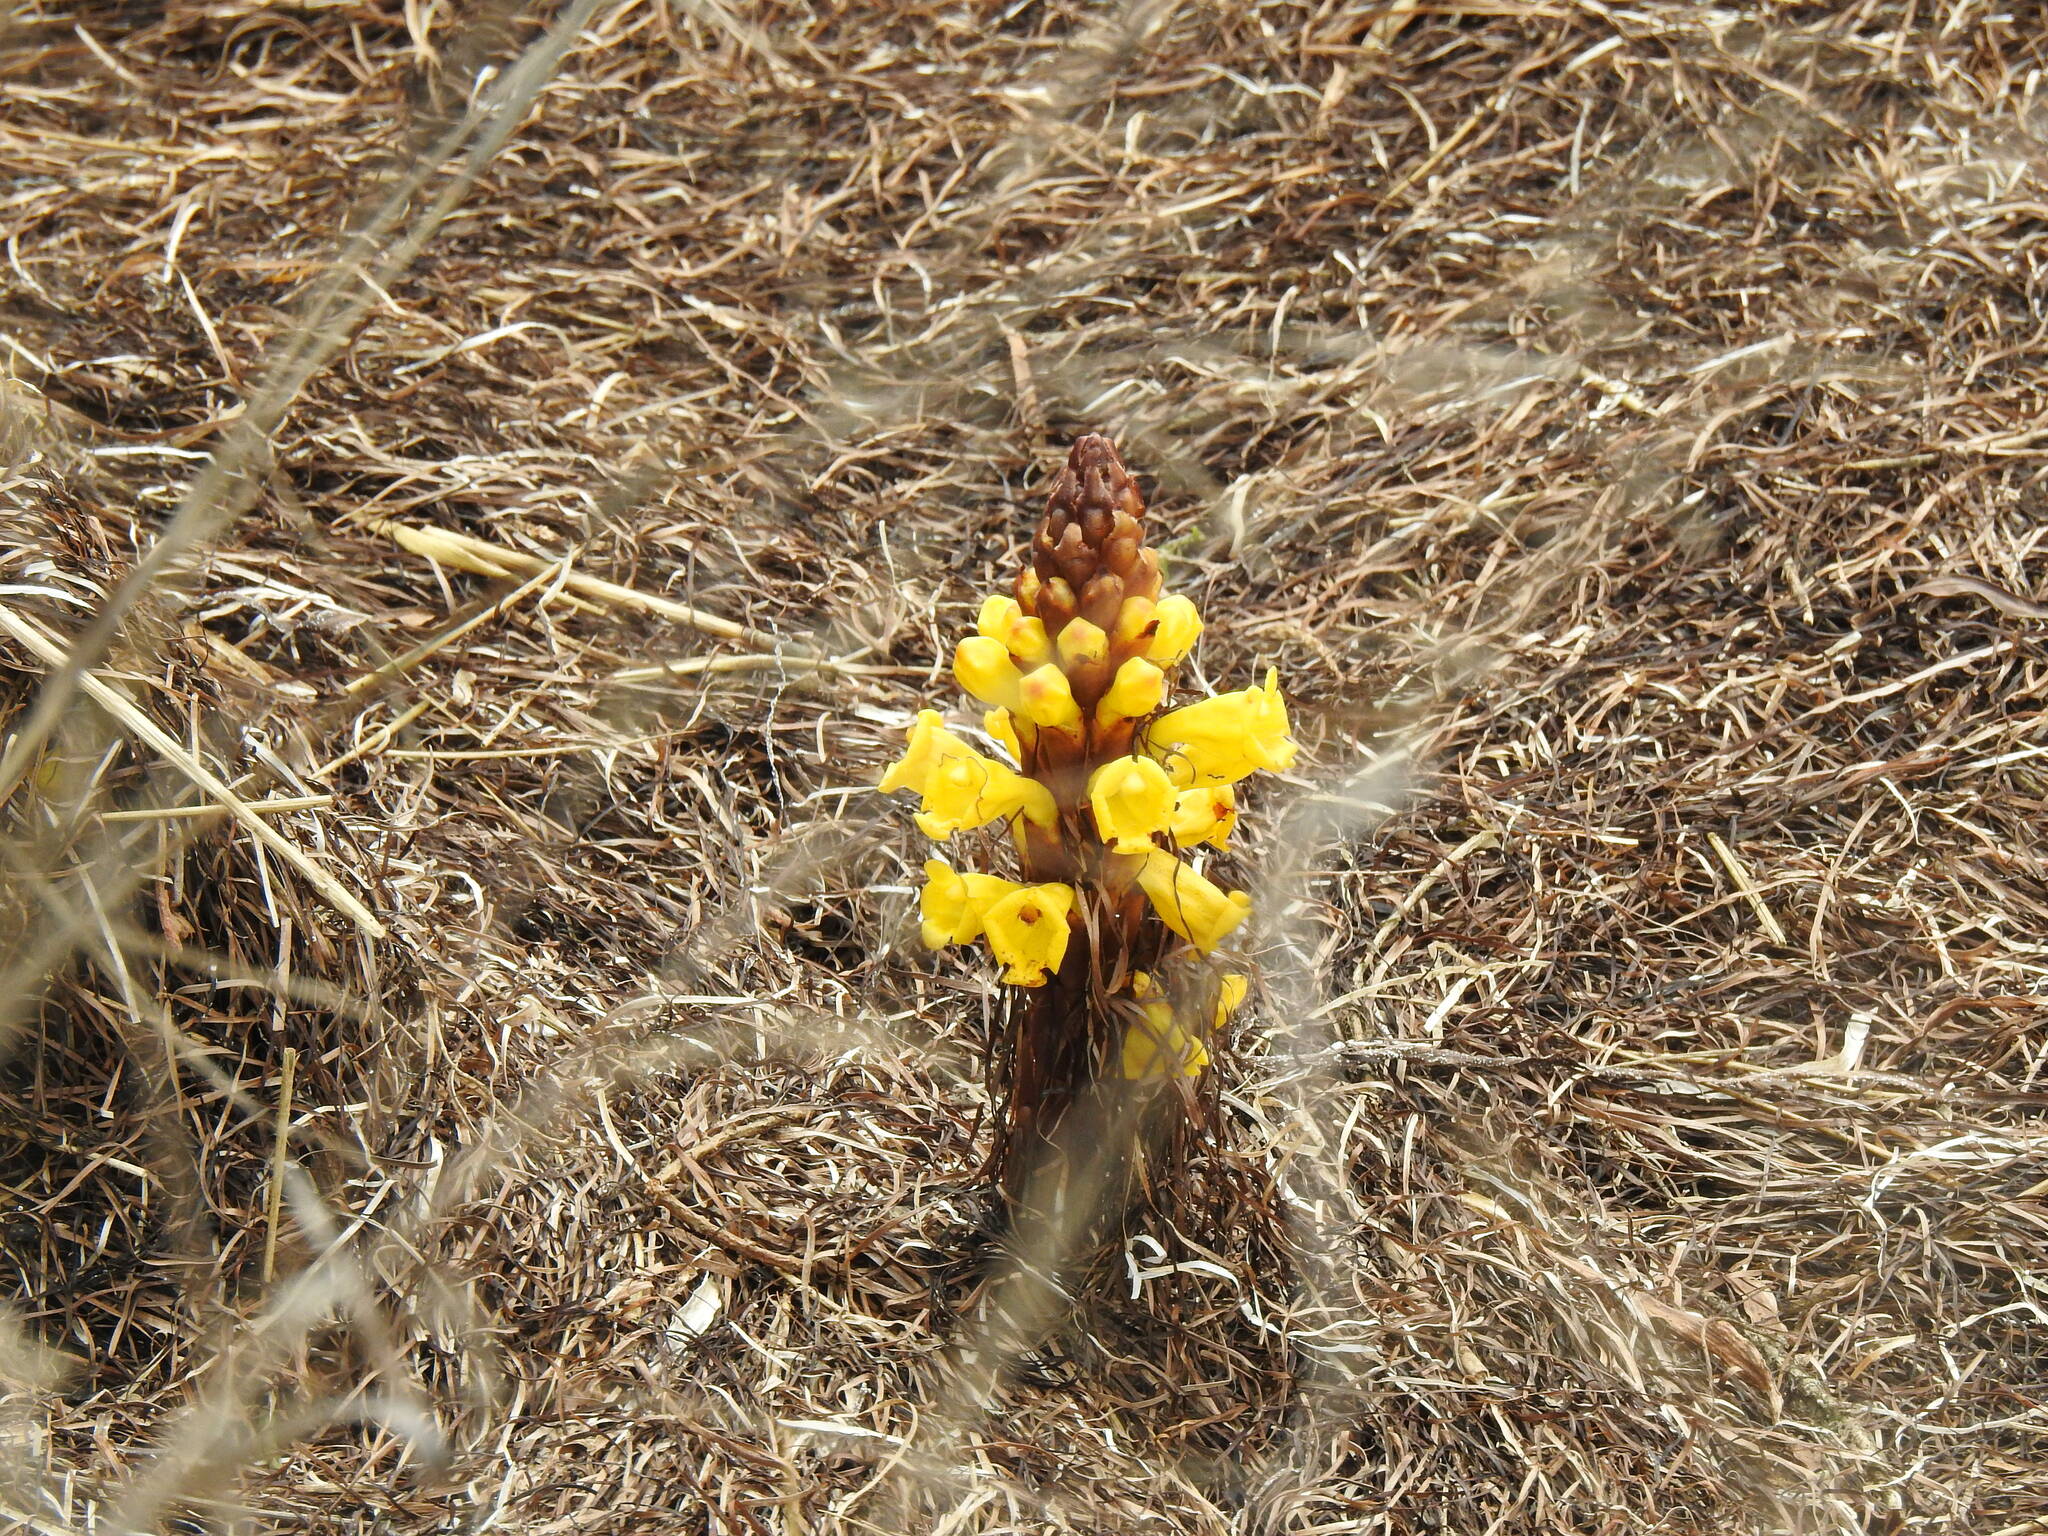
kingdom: Plantae
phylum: Tracheophyta
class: Magnoliopsida
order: Lamiales
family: Orobanchaceae
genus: Cistanche
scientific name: Cistanche phelypaea
